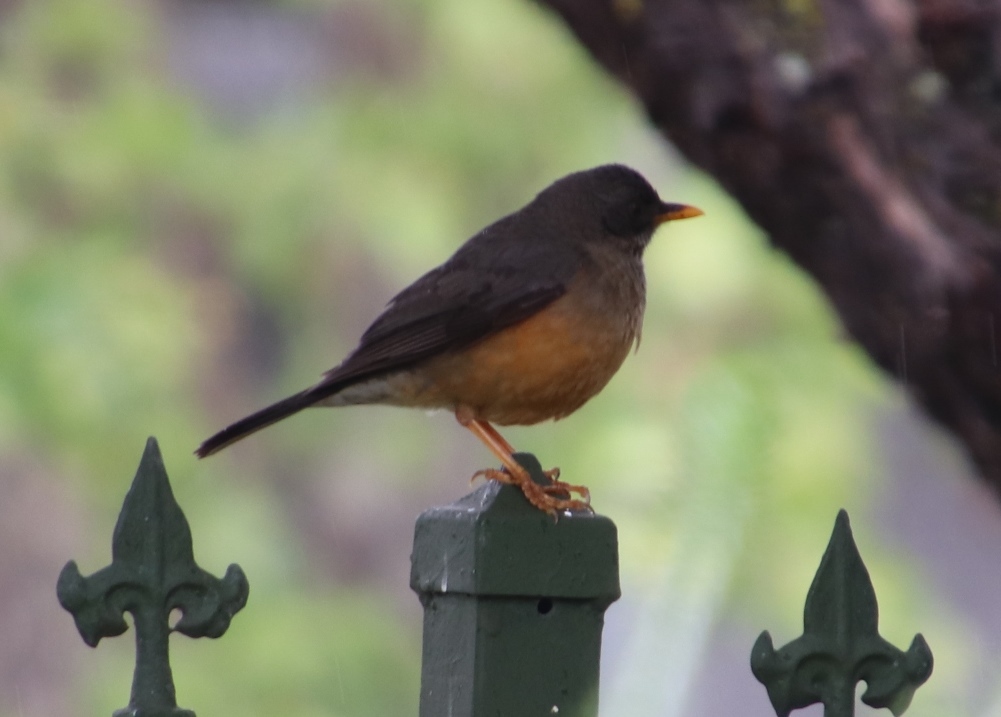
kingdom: Animalia
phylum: Chordata
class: Aves
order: Passeriformes
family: Turdidae
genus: Turdus
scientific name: Turdus olivaceus
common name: Olive thrush
